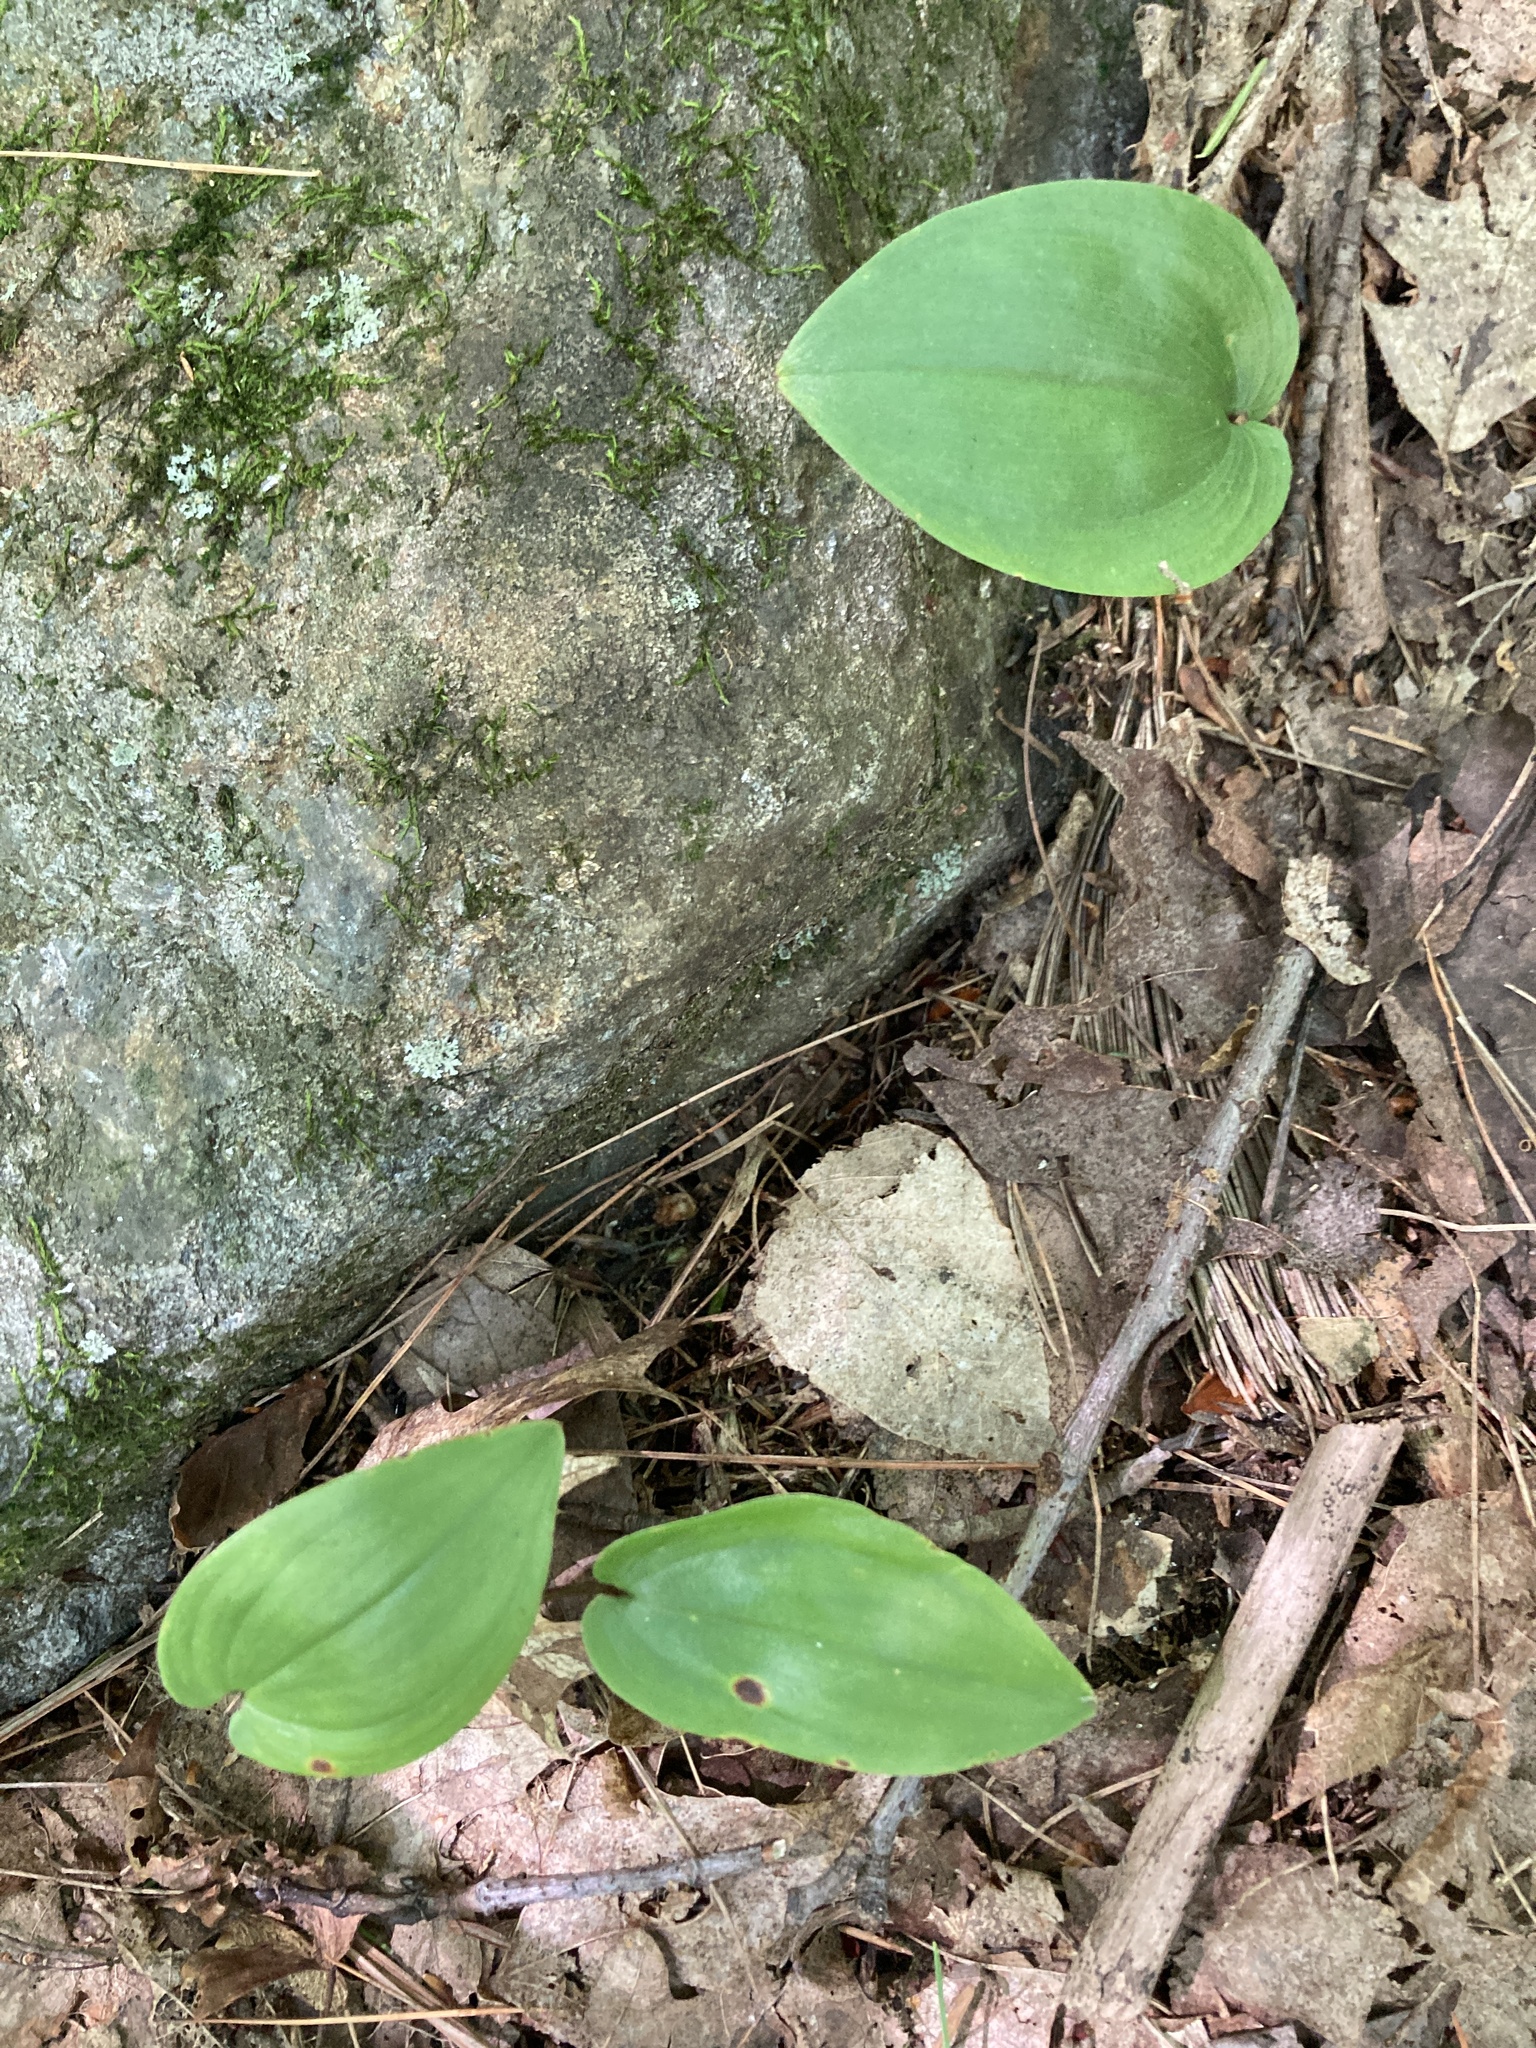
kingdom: Plantae
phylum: Tracheophyta
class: Liliopsida
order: Asparagales
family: Asparagaceae
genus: Maianthemum
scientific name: Maianthemum canadense
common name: False lily-of-the-valley
